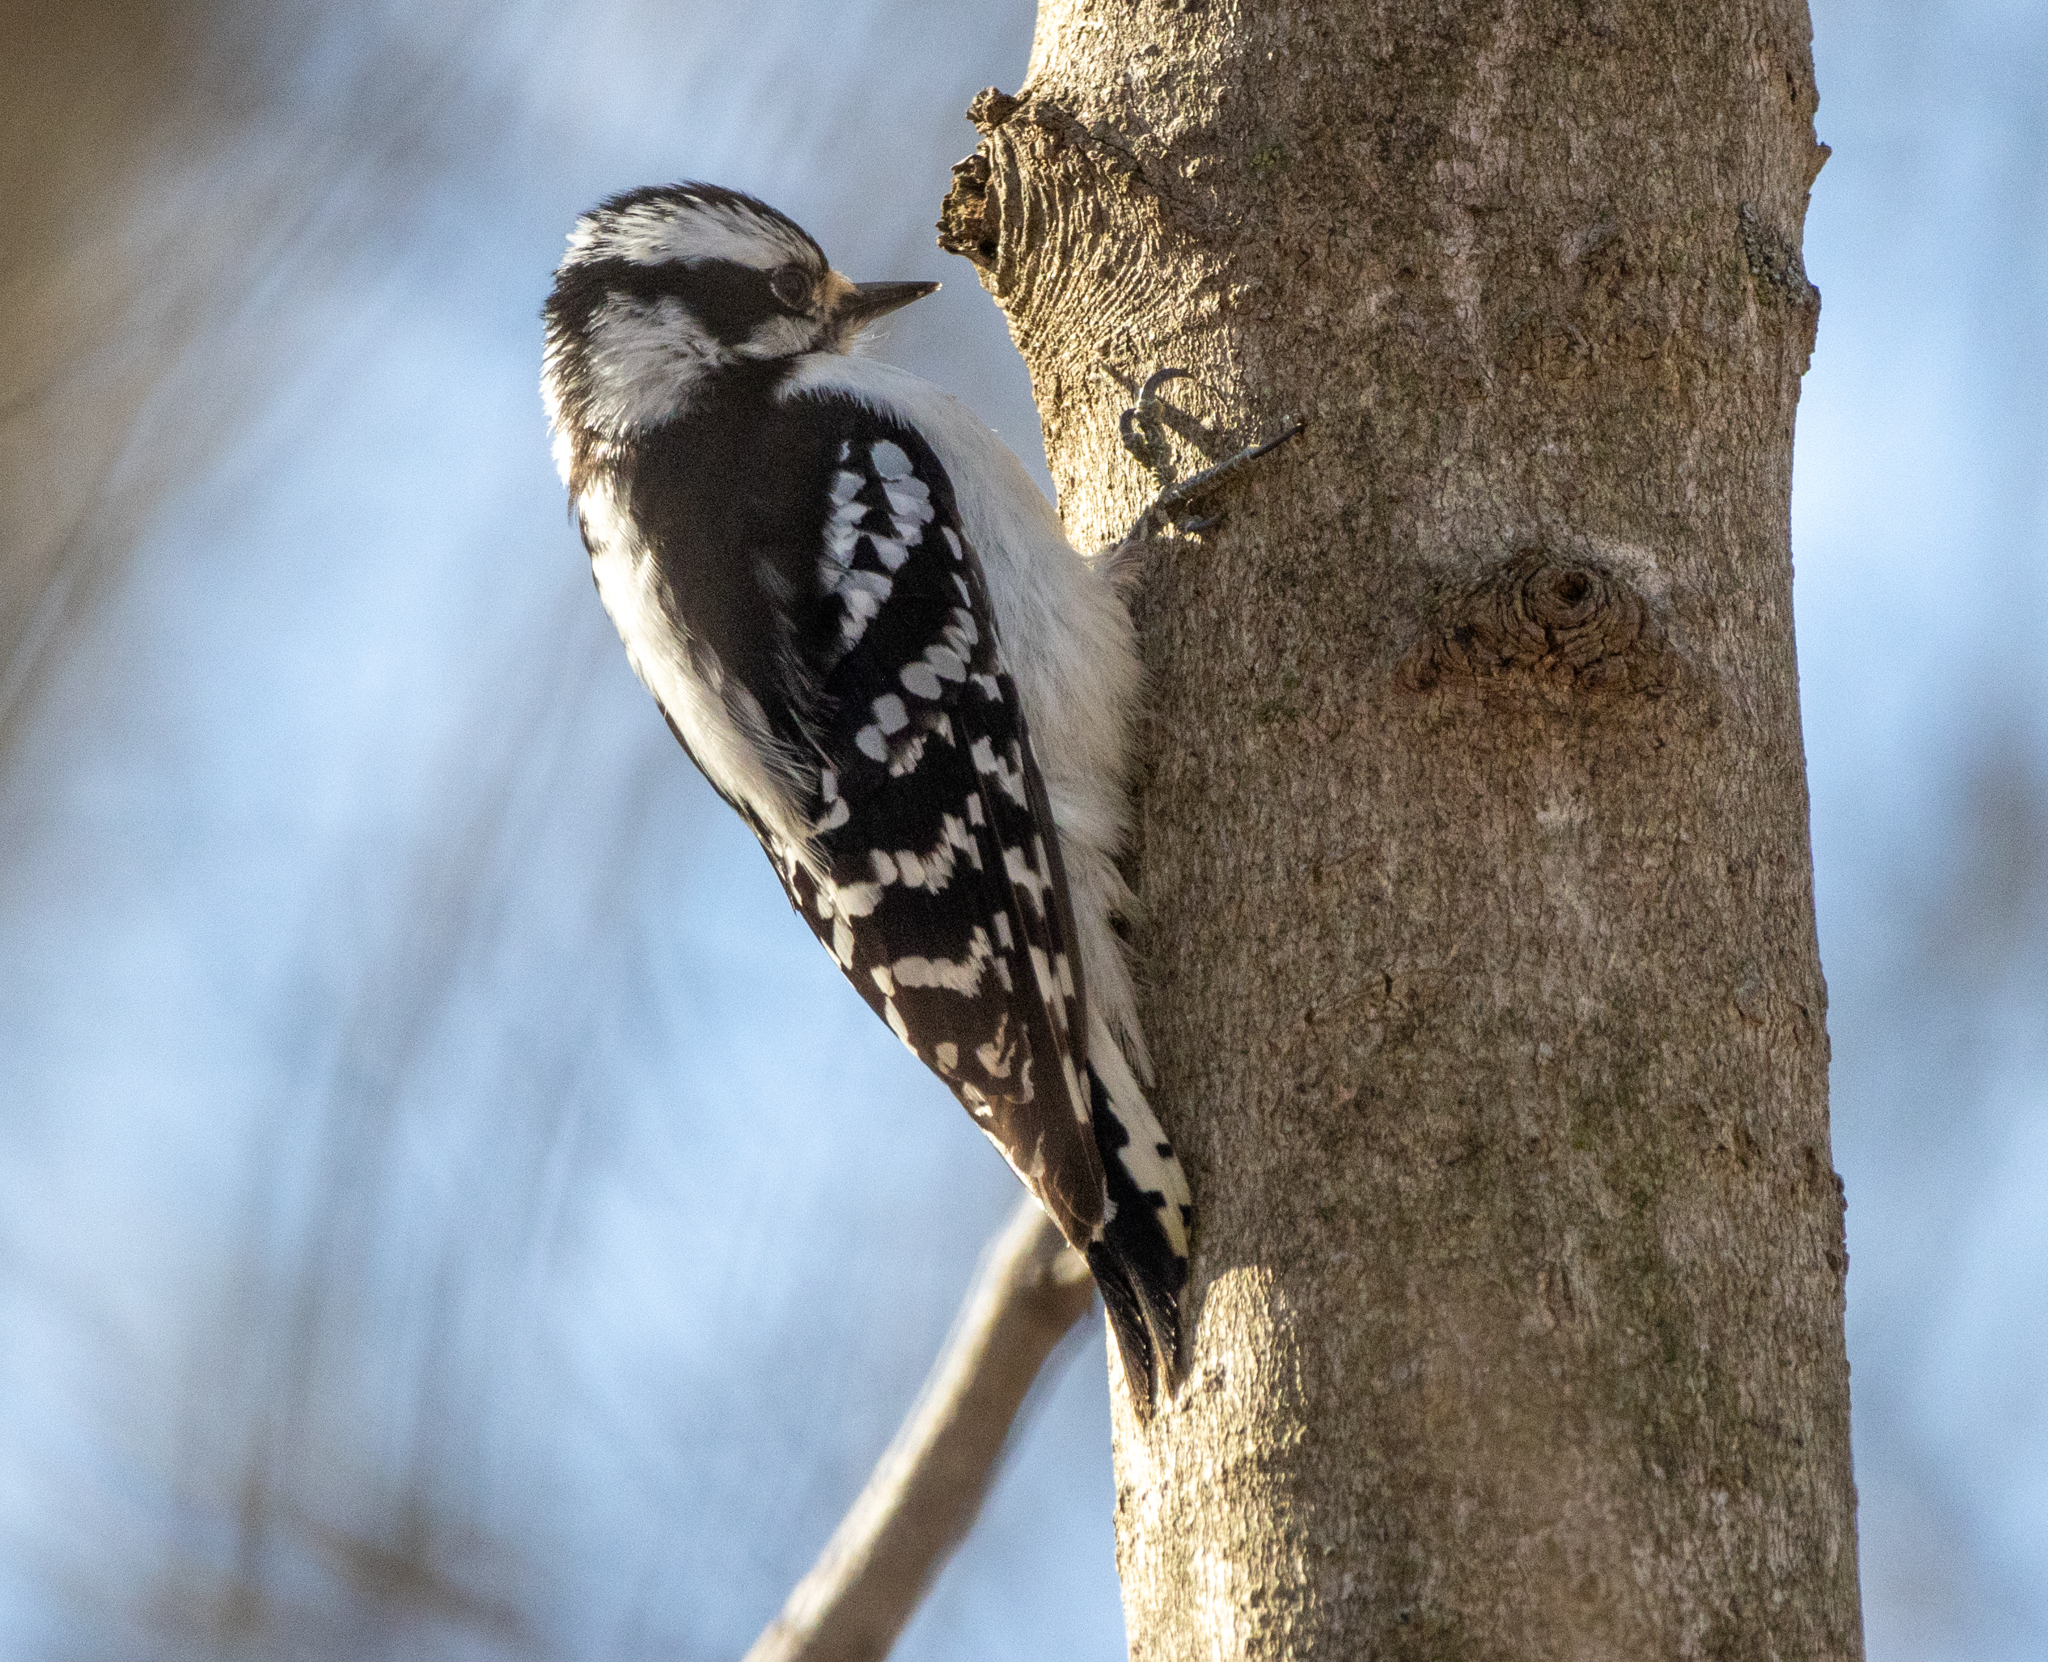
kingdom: Animalia
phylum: Chordata
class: Aves
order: Piciformes
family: Picidae
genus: Dryobates
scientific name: Dryobates pubescens
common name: Downy woodpecker
